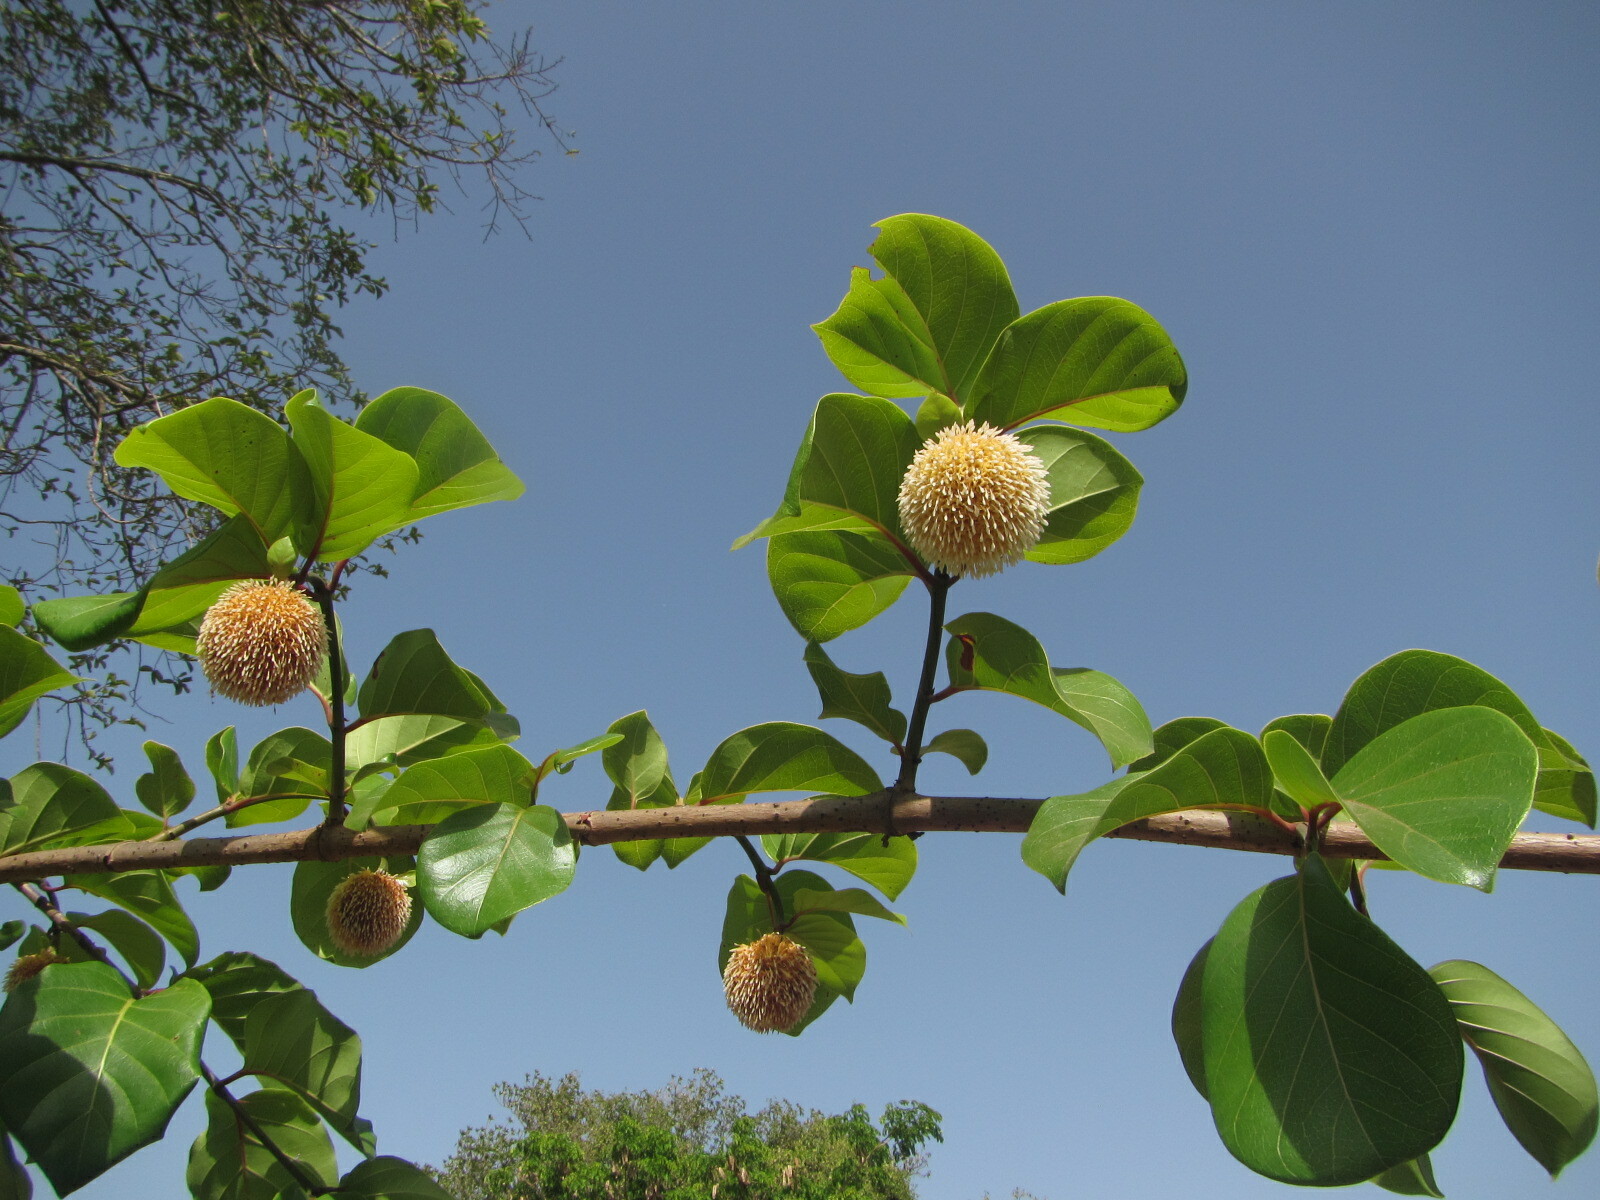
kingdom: Plantae
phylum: Tracheophyta
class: Magnoliopsida
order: Gentianales
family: Rubiaceae
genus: Nauclea
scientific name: Nauclea latifolia
